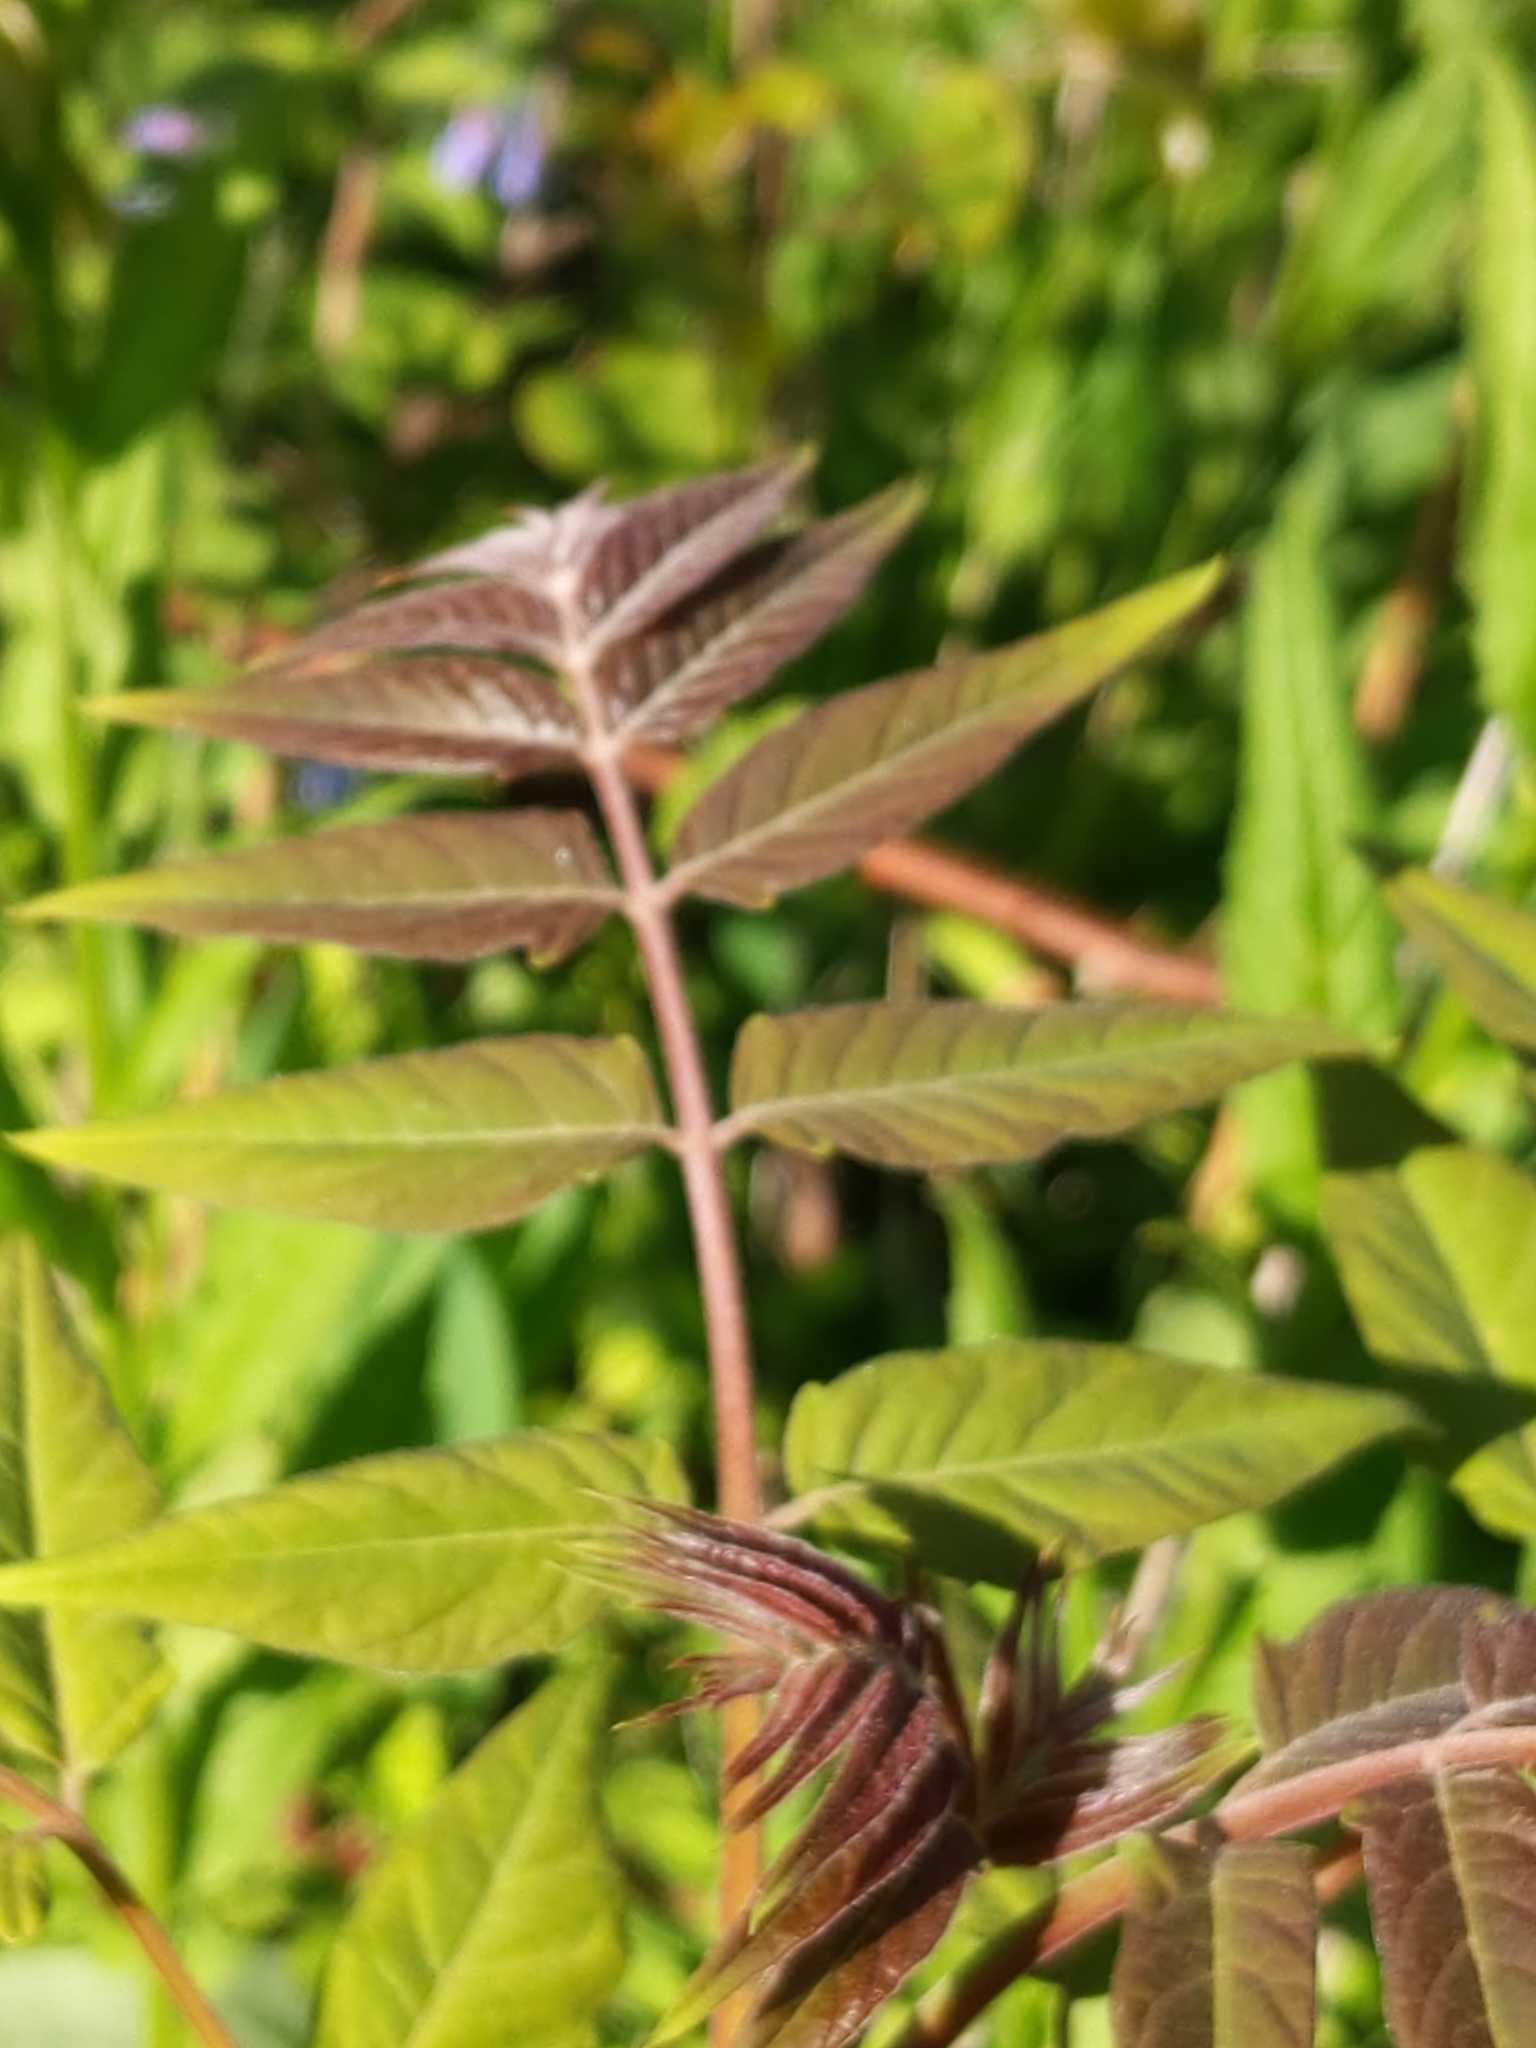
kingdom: Plantae
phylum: Tracheophyta
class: Magnoliopsida
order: Sapindales
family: Simaroubaceae
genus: Ailanthus
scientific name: Ailanthus altissima
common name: Tree-of-heaven
